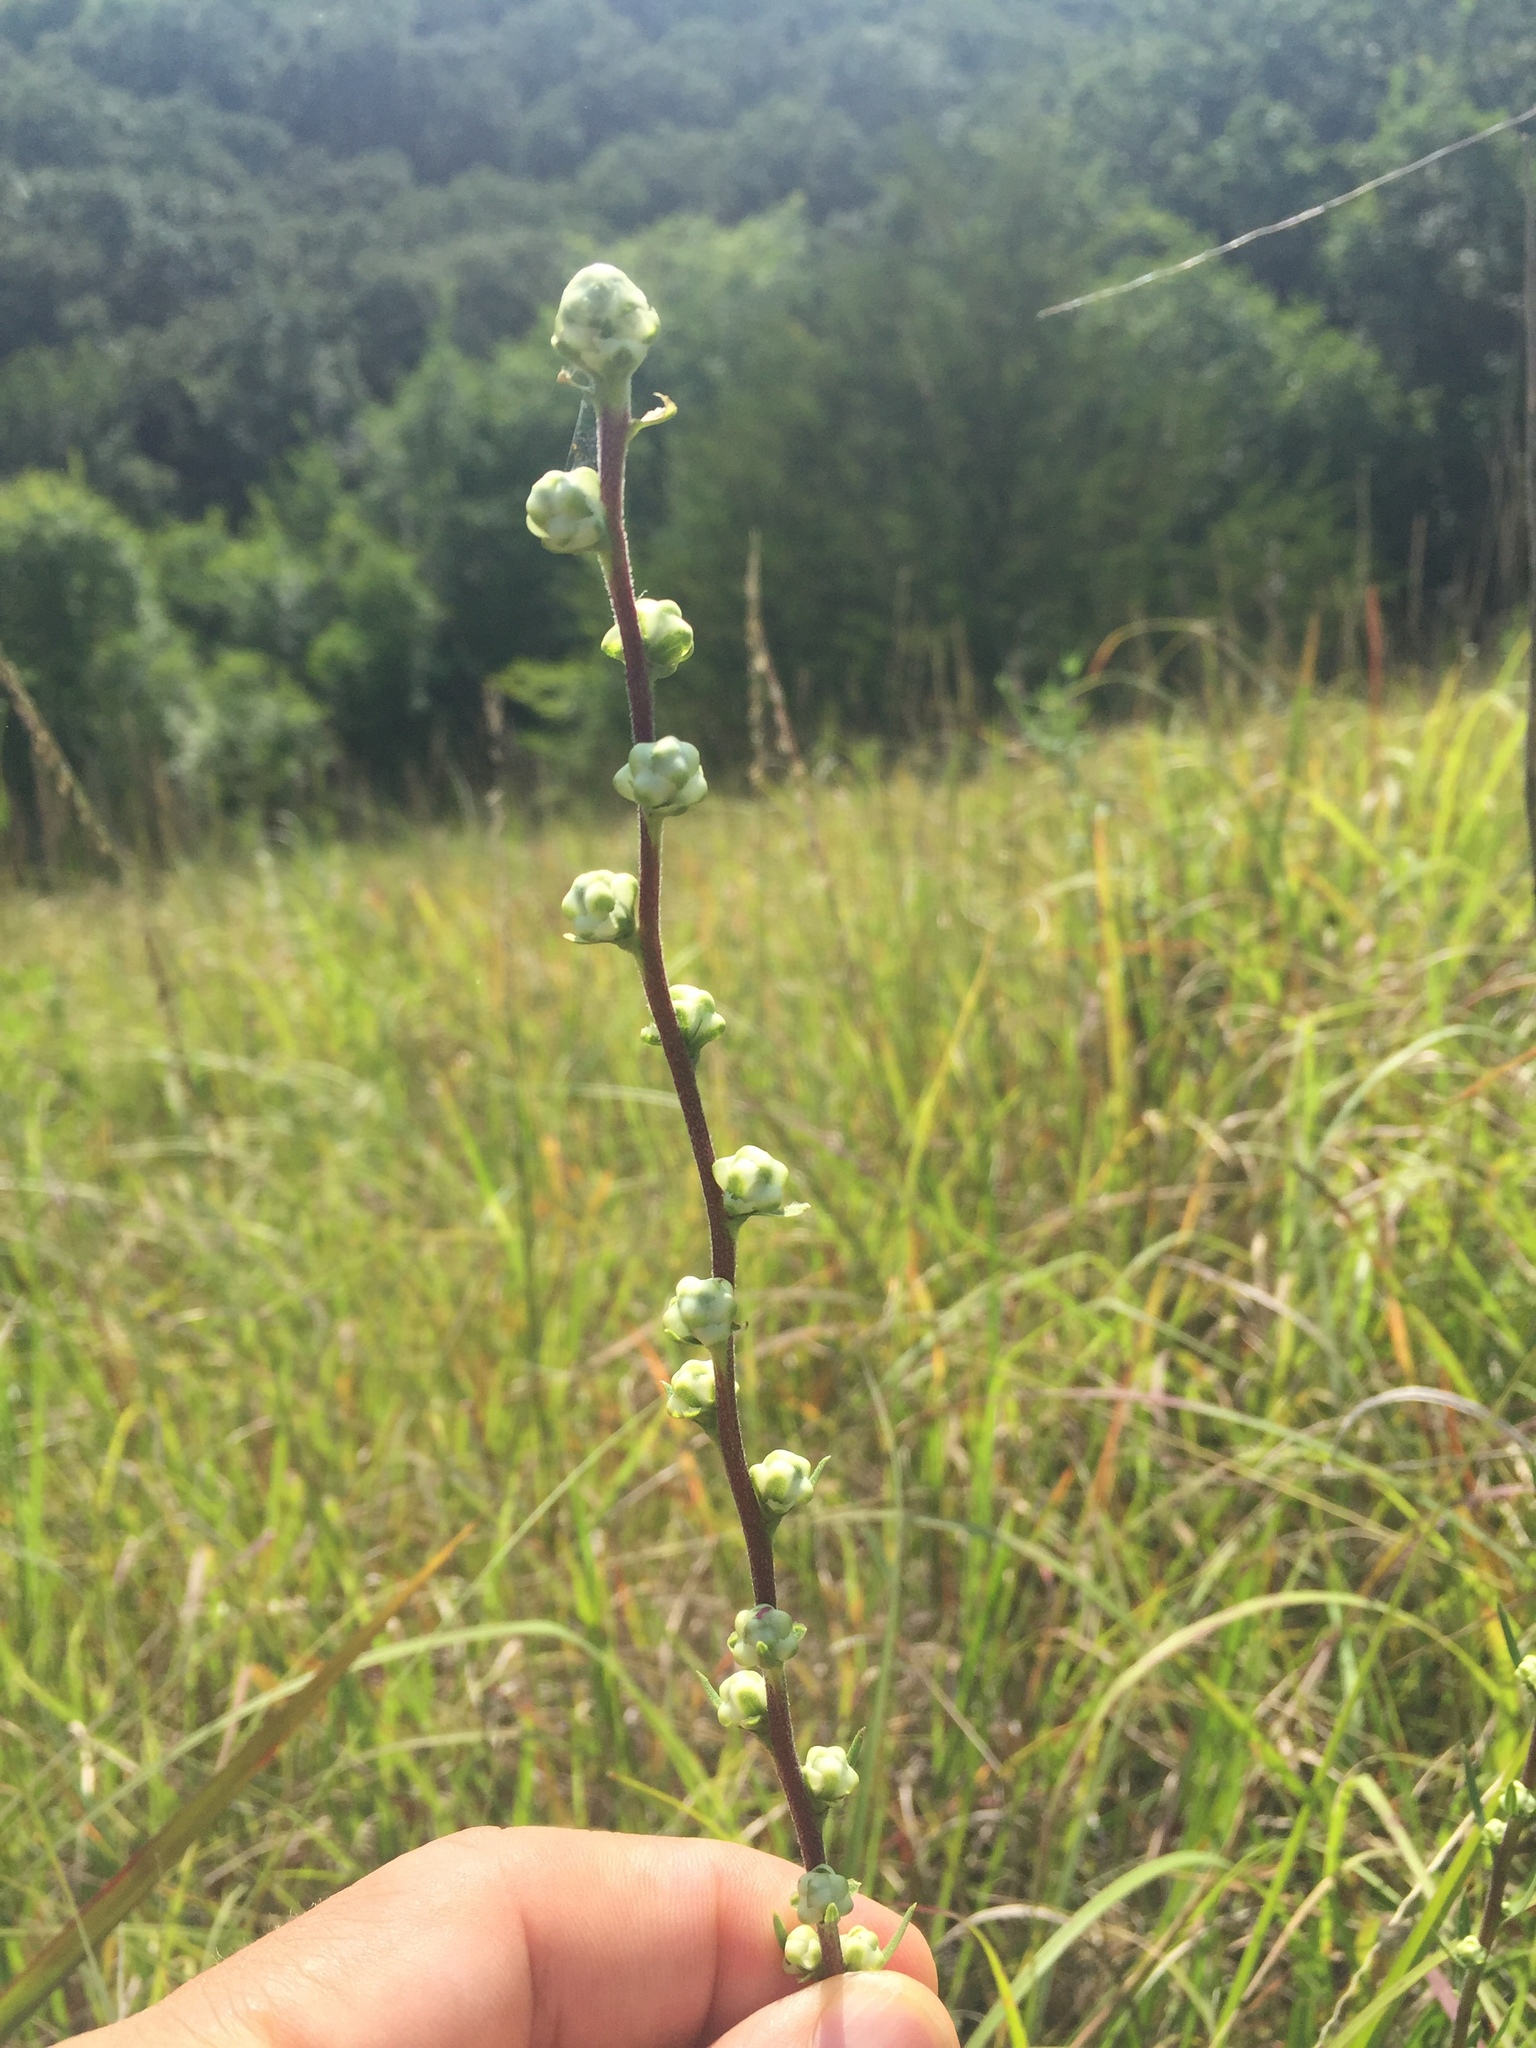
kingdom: Plantae
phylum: Tracheophyta
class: Magnoliopsida
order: Asterales
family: Asteraceae
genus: Liatris
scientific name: Liatris aspera
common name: Lacerate blazing-star
